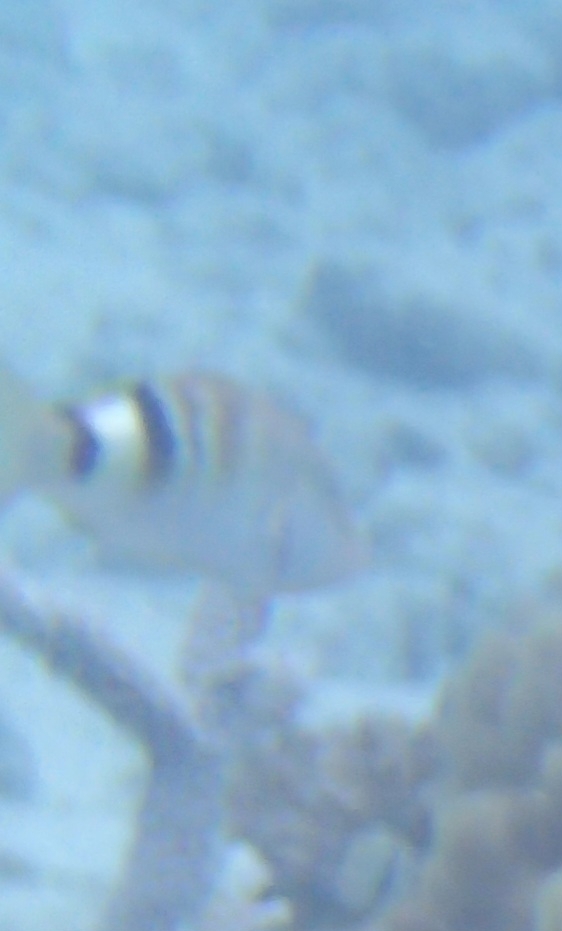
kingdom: Animalia
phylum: Chordata
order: Perciformes
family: Mullidae
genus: Parupeneus
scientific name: Parupeneus multifasciatus
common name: Manybar goatfish
